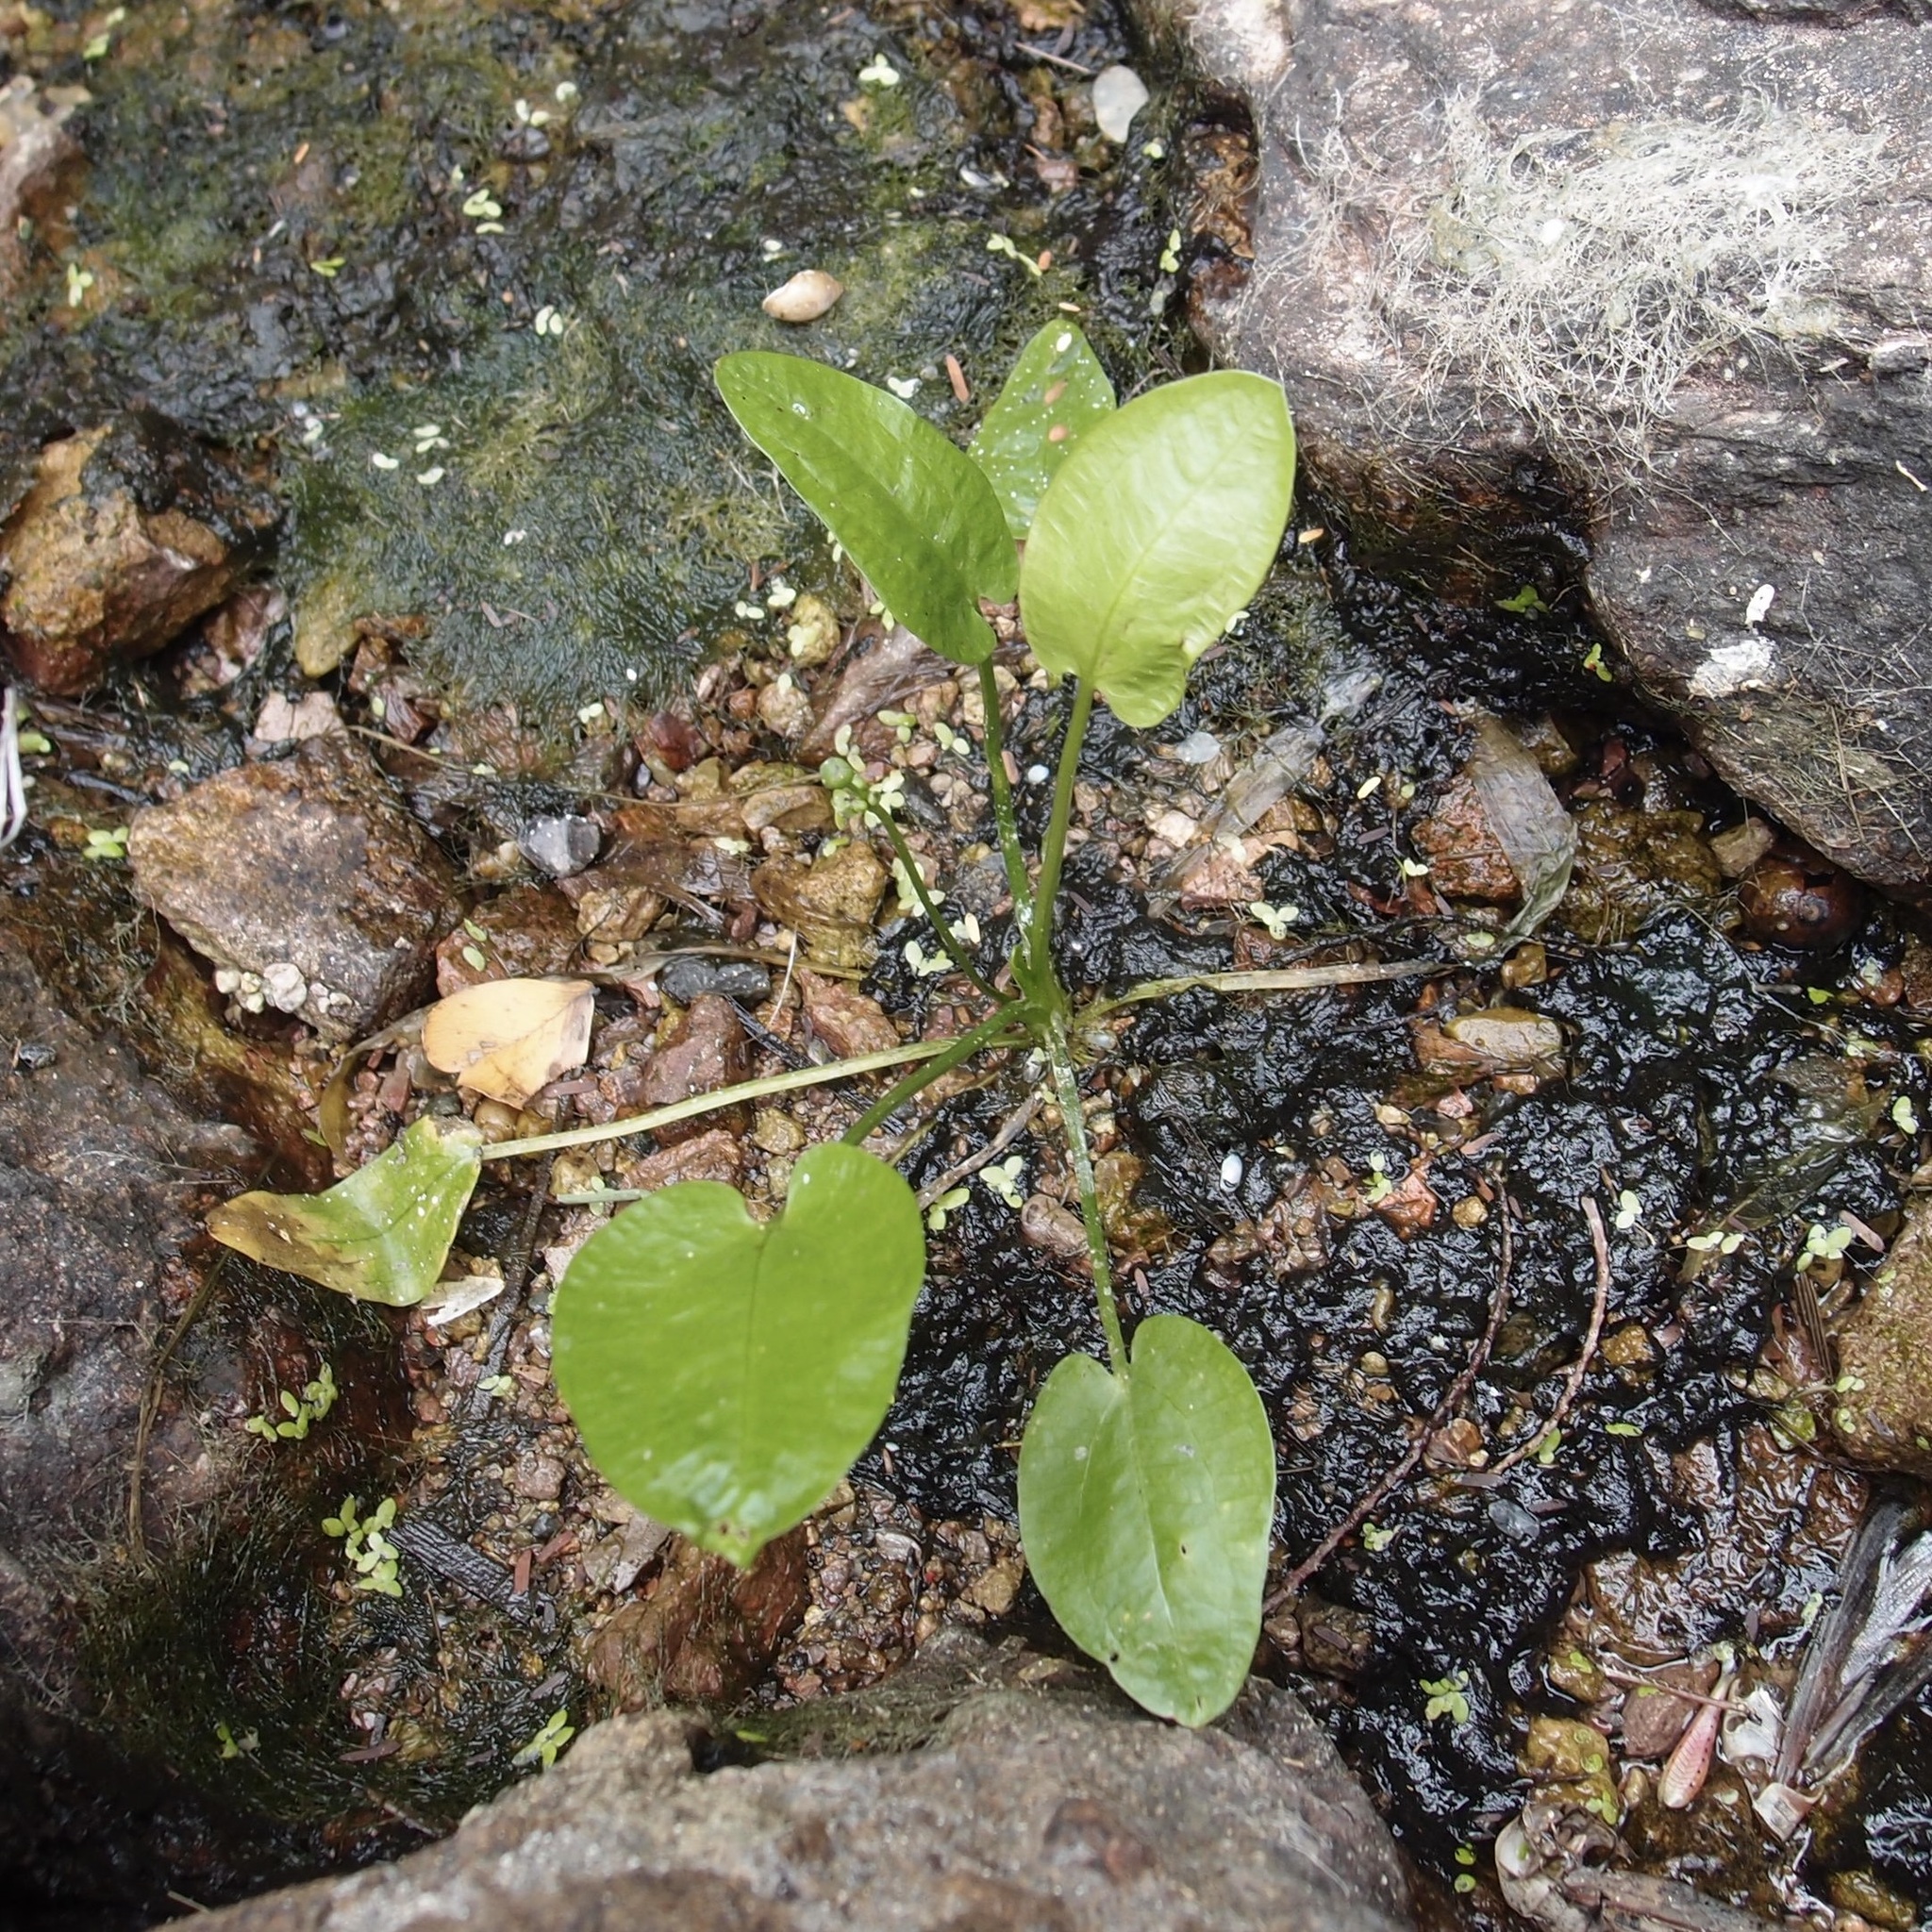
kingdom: Plantae
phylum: Tracheophyta
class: Liliopsida
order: Alismatales
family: Alismataceae
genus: Echinodorus
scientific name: Echinodorus berteroi
